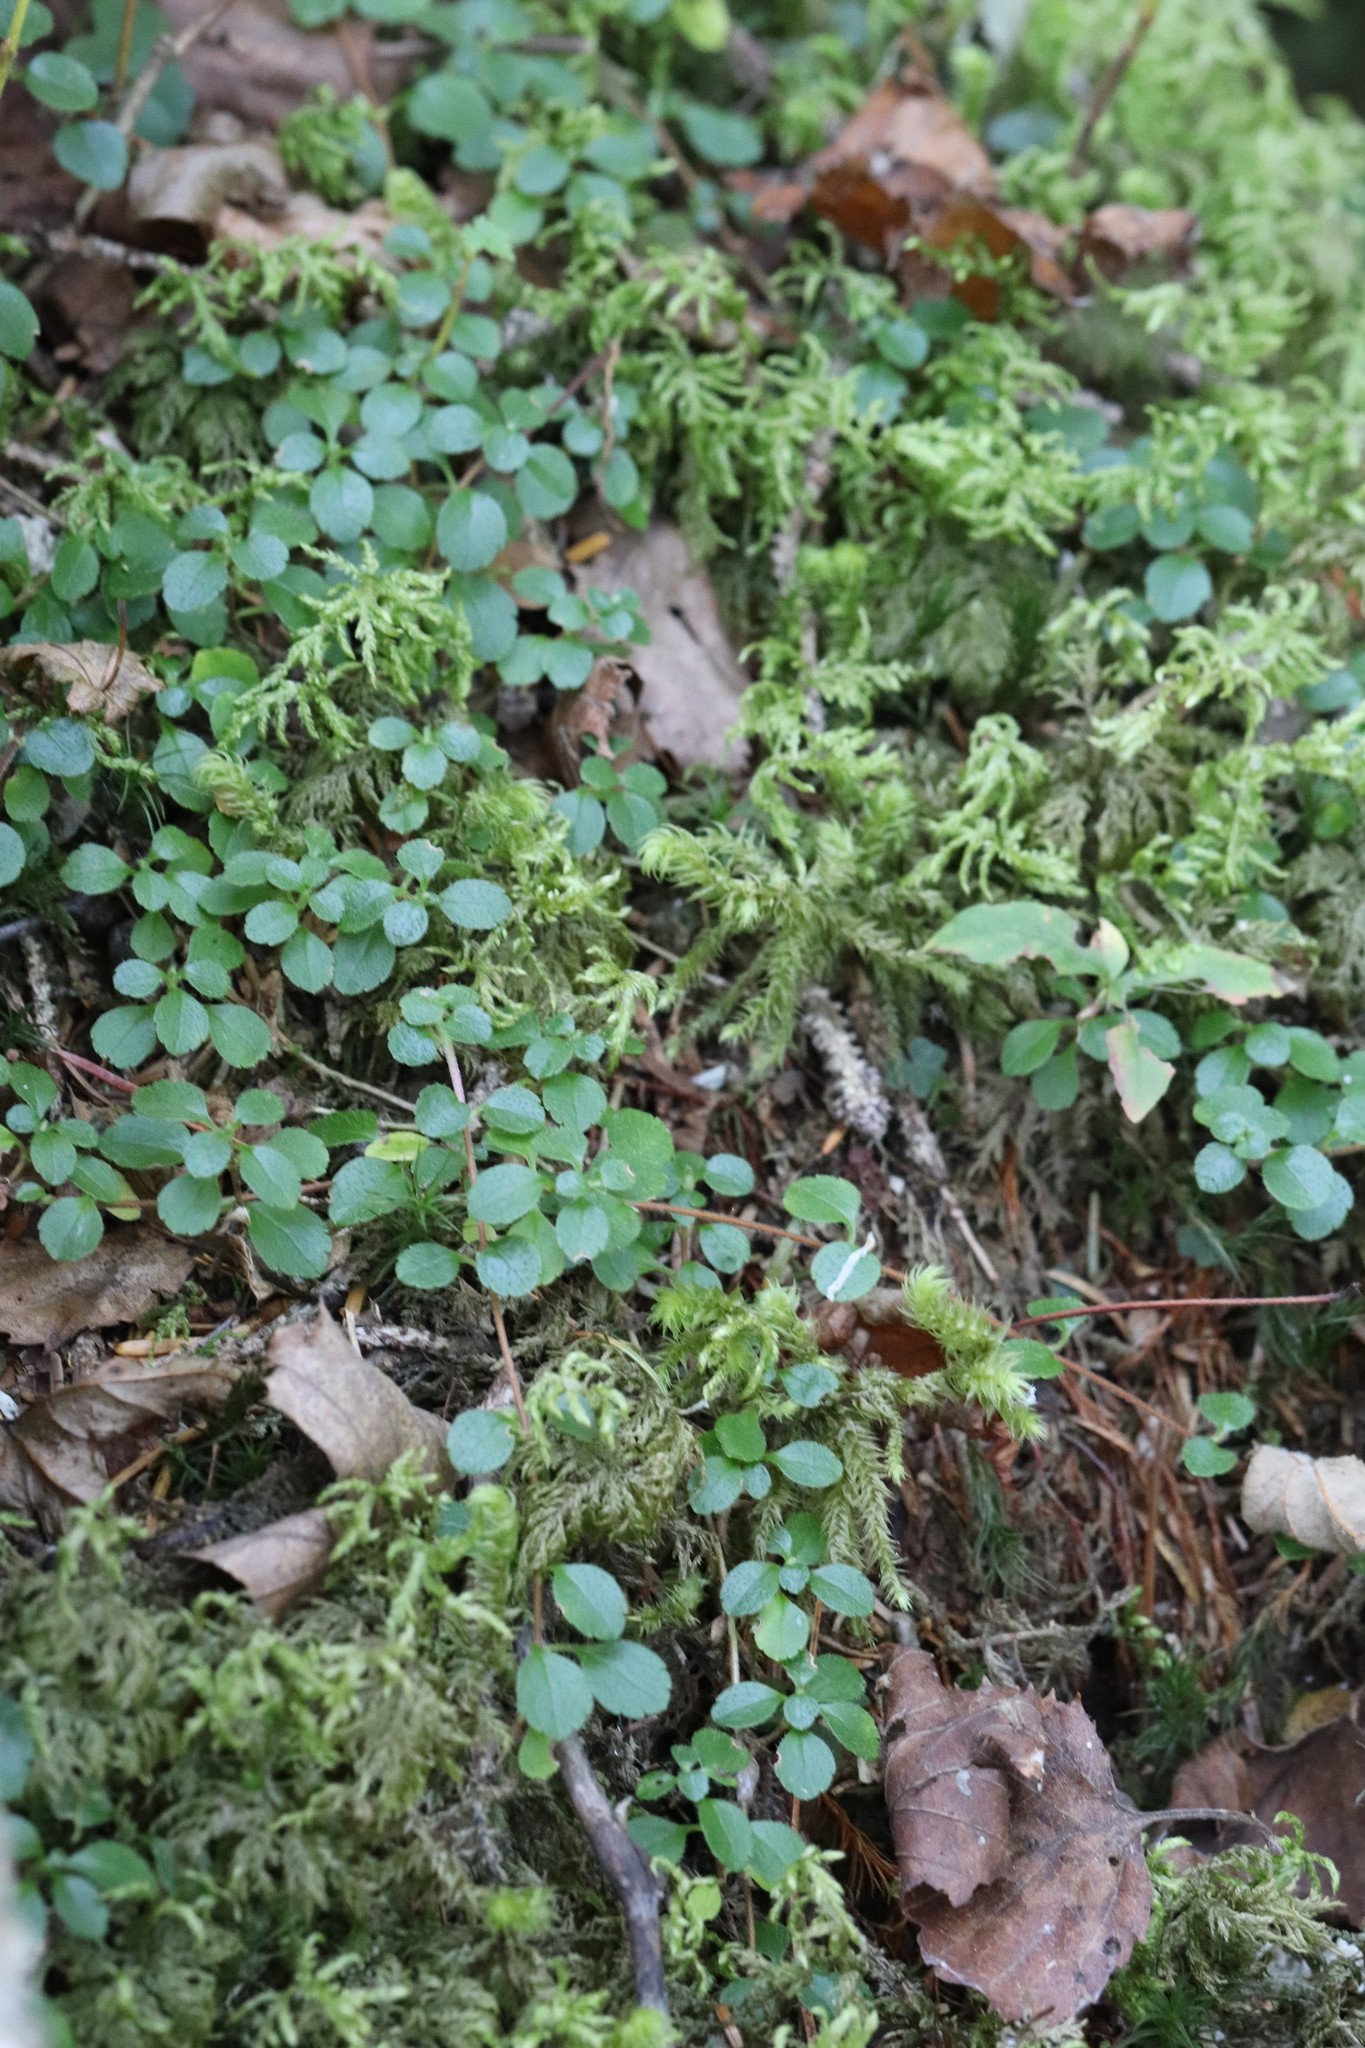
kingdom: Plantae
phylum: Tracheophyta
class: Magnoliopsida
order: Dipsacales
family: Caprifoliaceae
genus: Linnaea
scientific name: Linnaea borealis
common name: Twinflower
